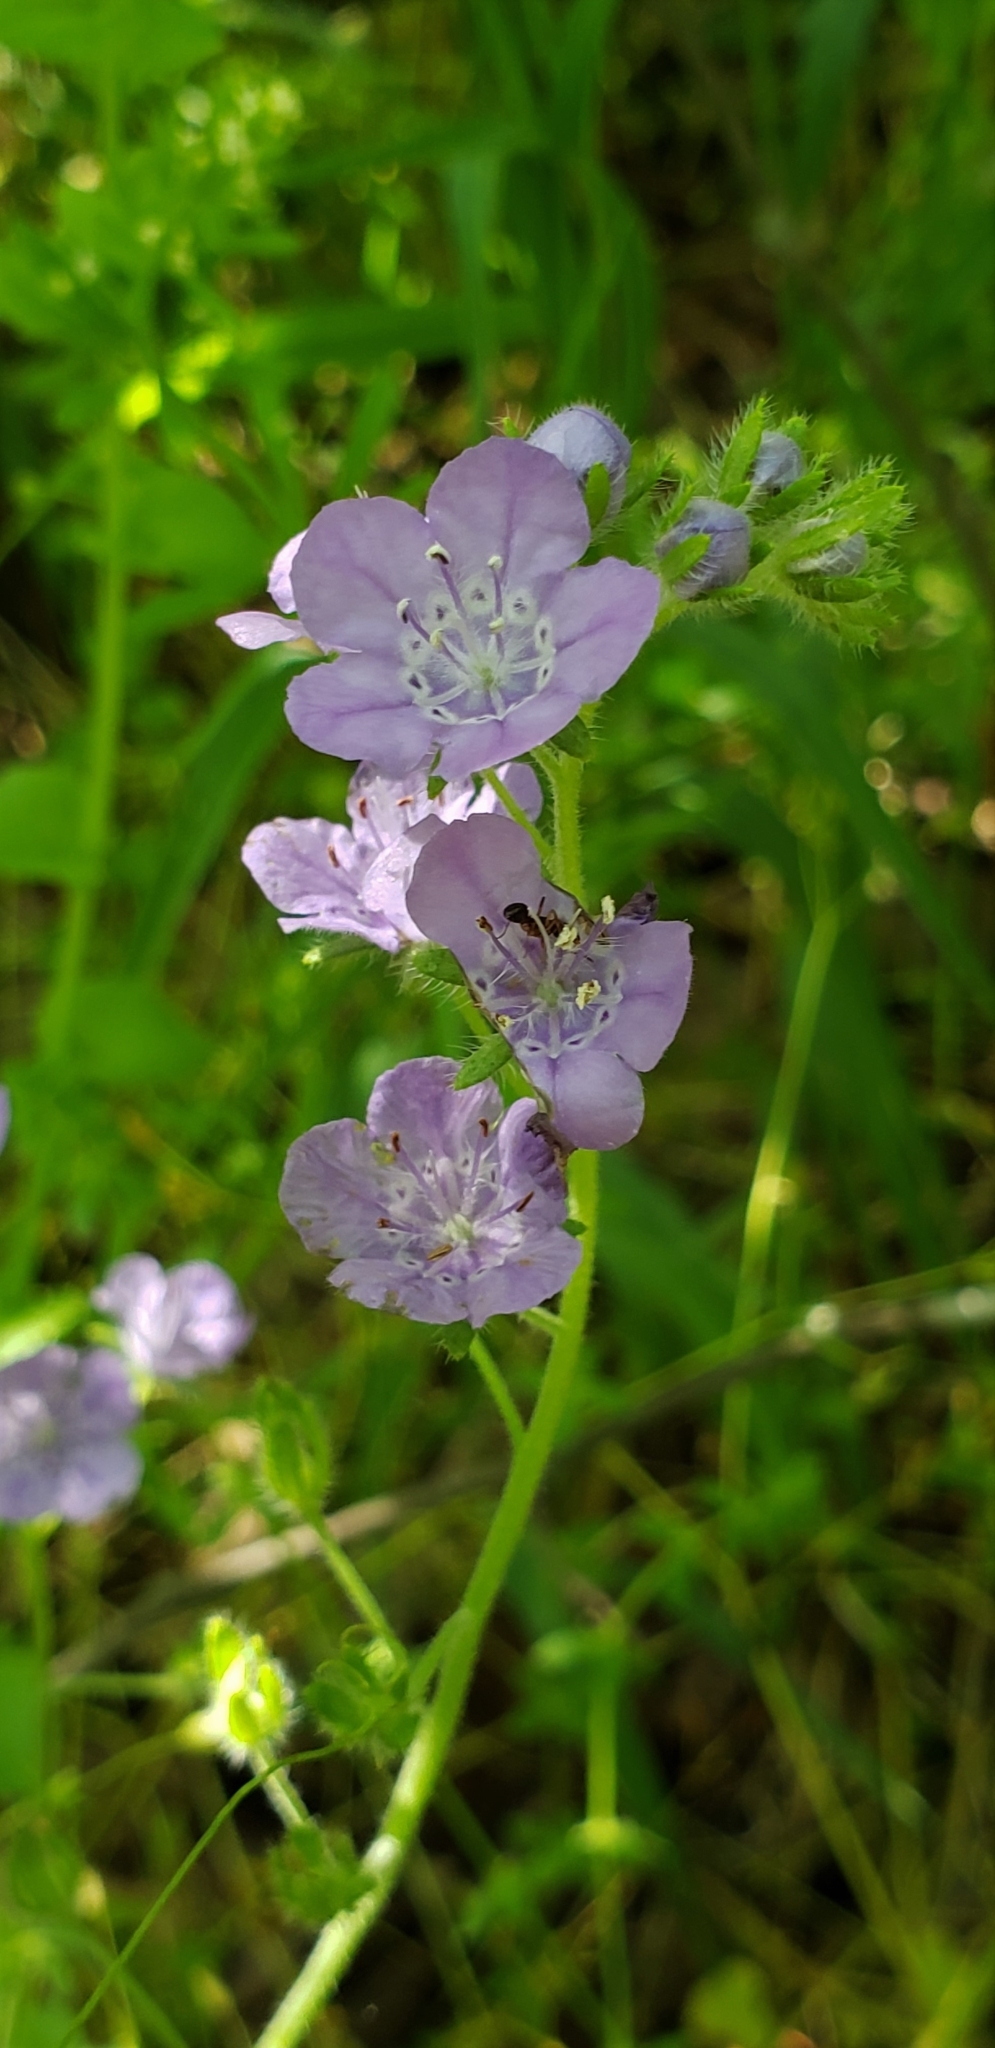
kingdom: Plantae
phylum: Tracheophyta
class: Magnoliopsida
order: Boraginales
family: Hydrophyllaceae
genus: Phacelia
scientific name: Phacelia hirsuta
